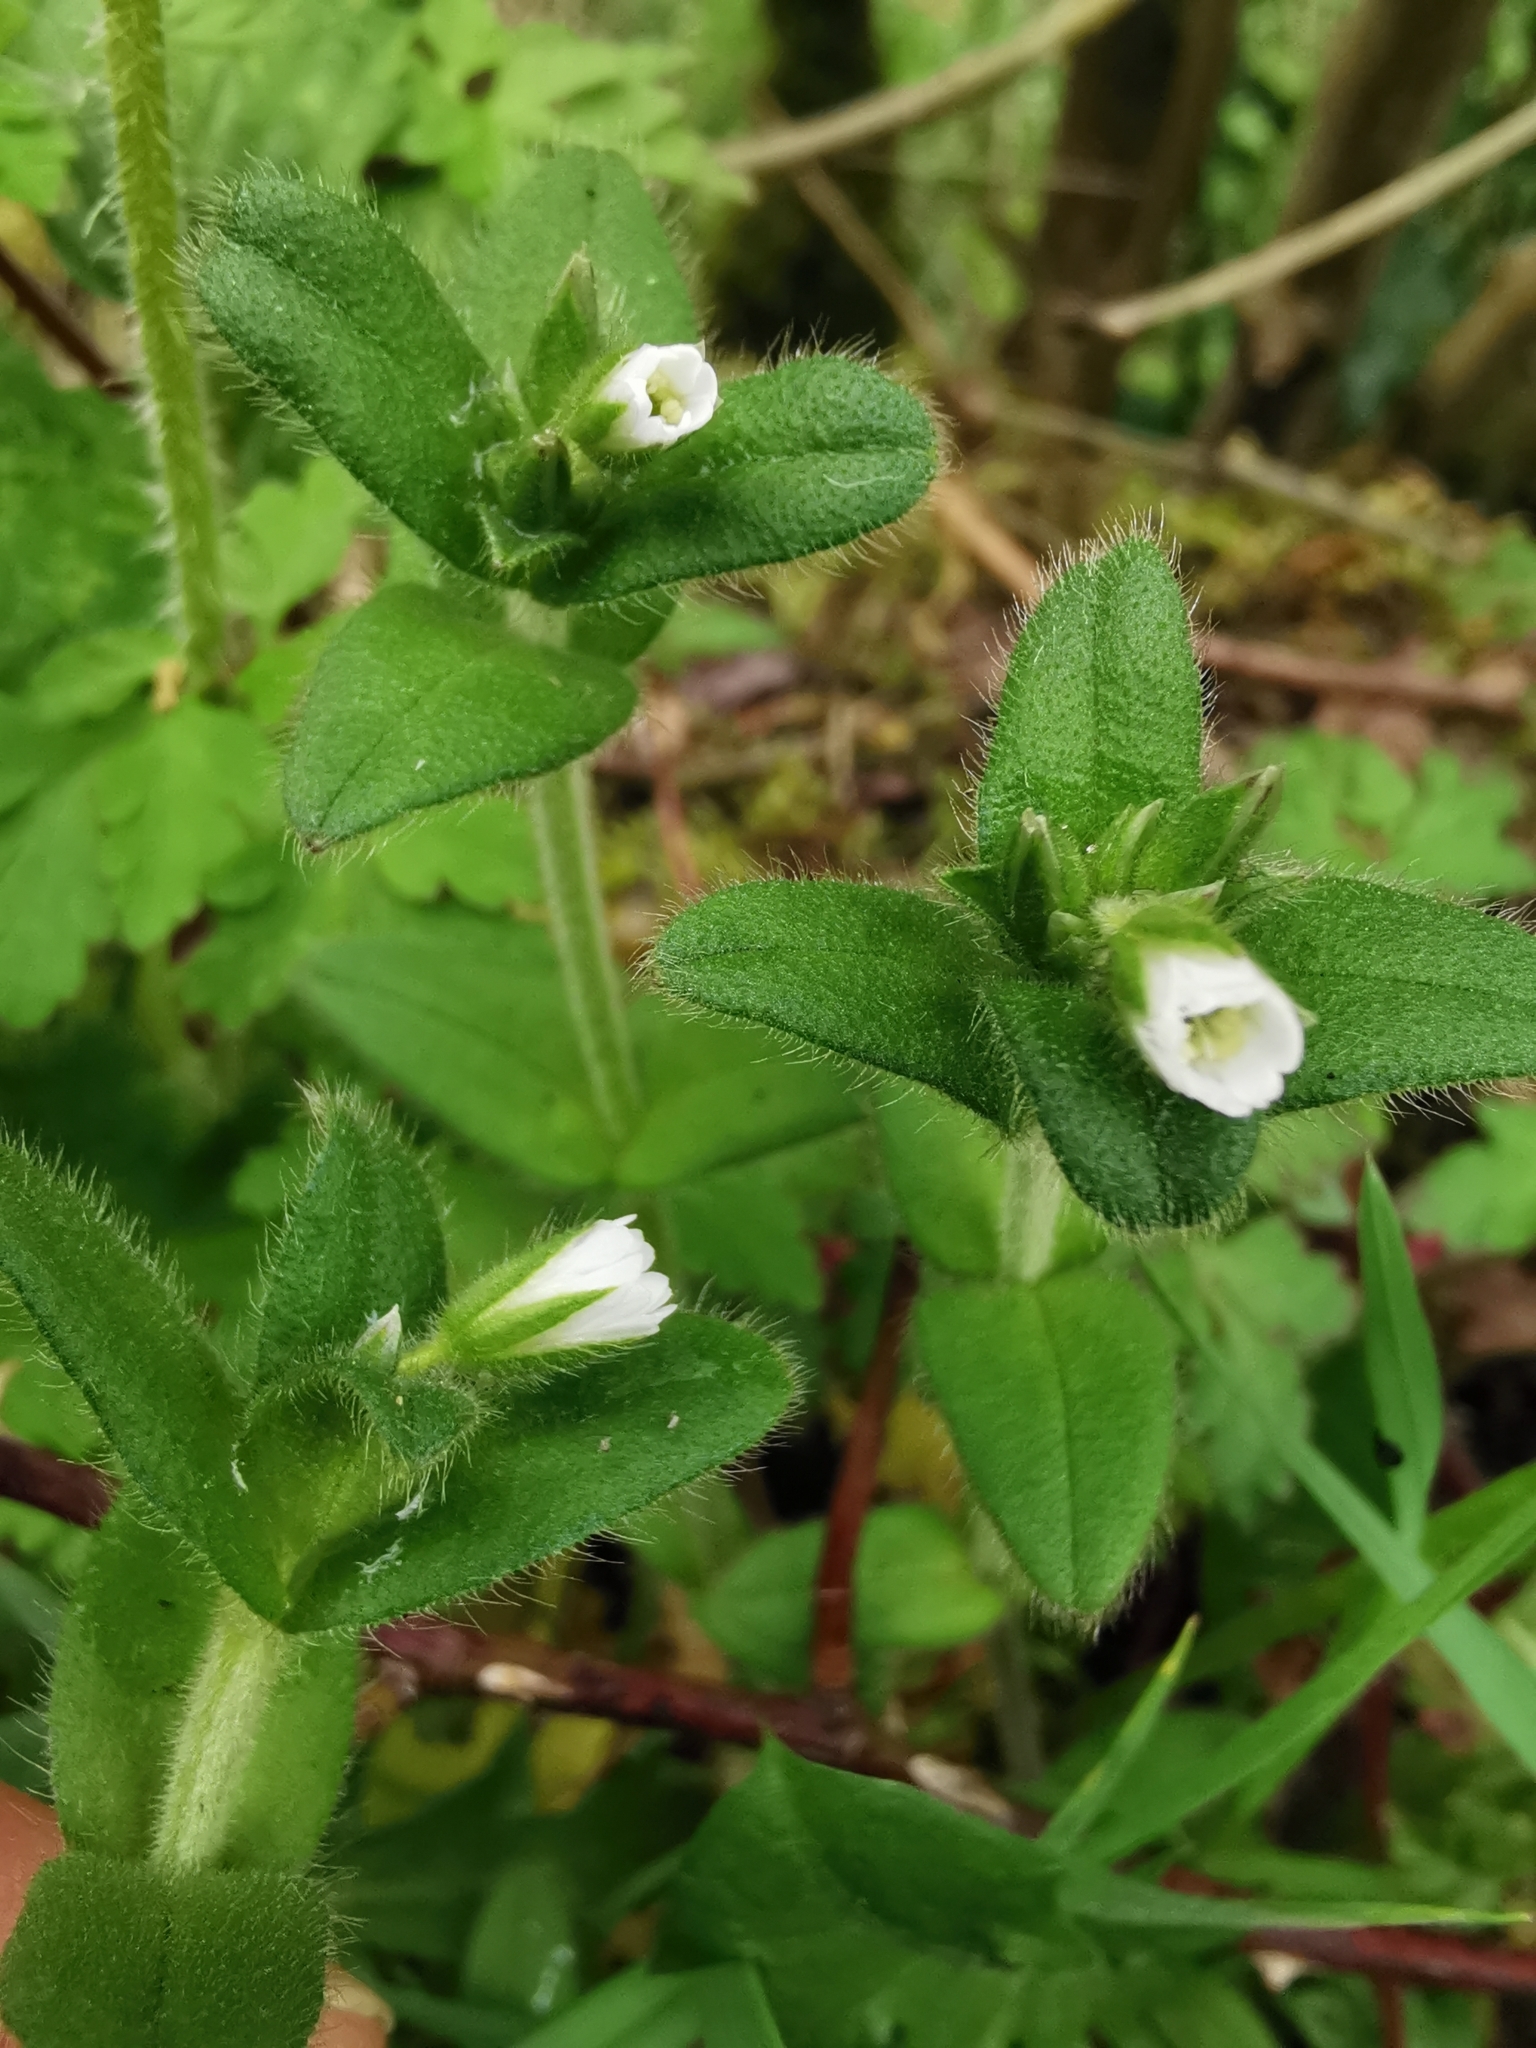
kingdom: Plantae
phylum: Tracheophyta
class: Magnoliopsida
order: Caryophyllales
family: Caryophyllaceae
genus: Cerastium
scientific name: Cerastium fontanum
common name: Common mouse-ear
